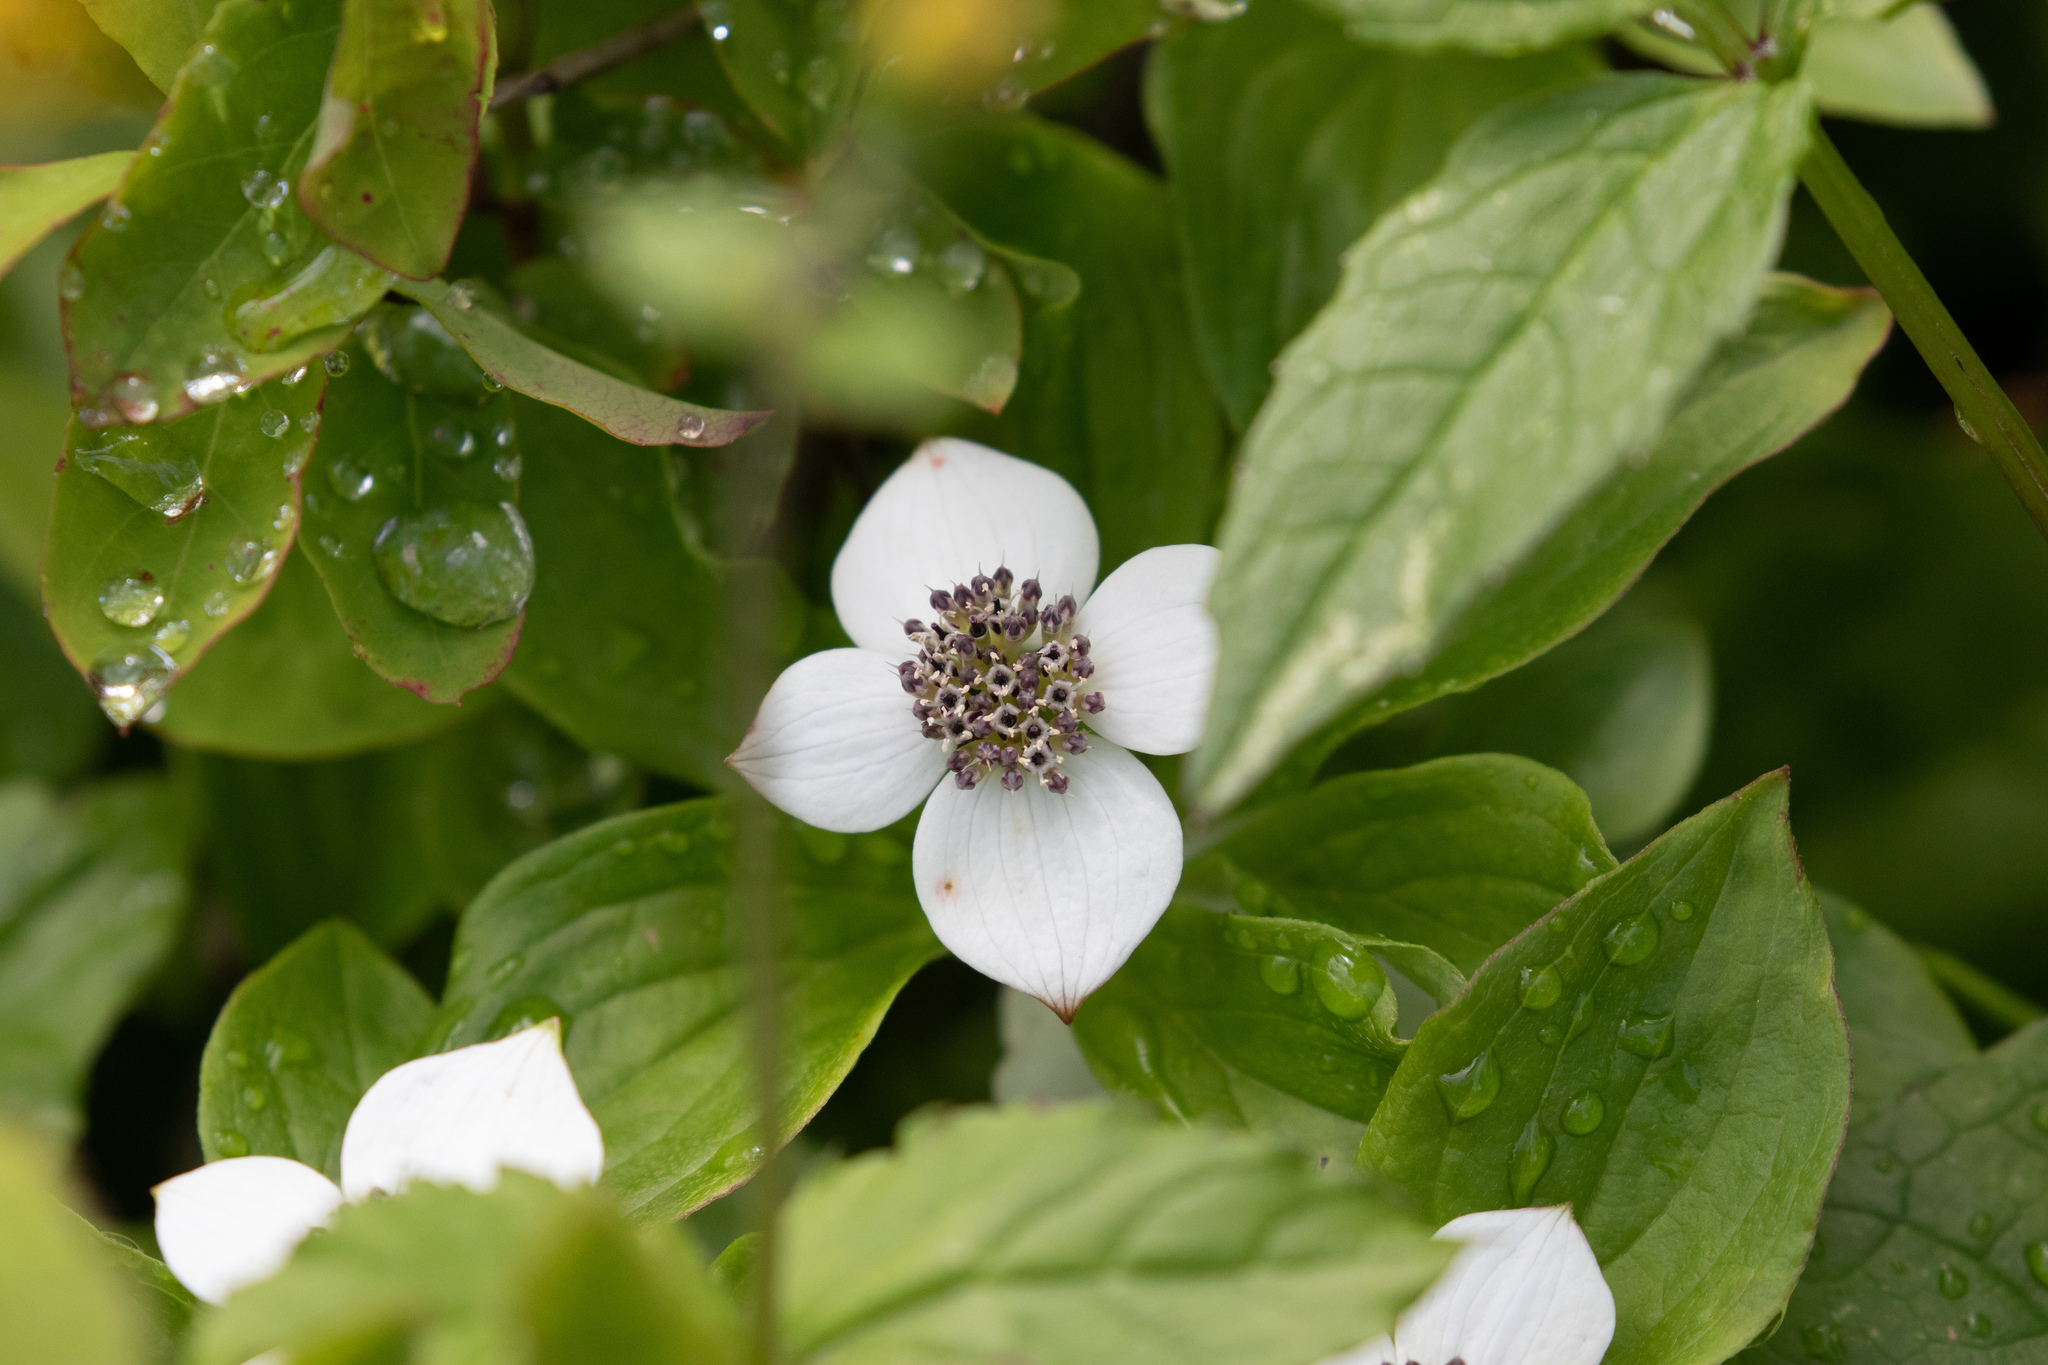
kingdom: Plantae
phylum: Tracheophyta
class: Magnoliopsida
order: Cornales
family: Cornaceae
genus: Cornus
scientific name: Cornus unalaschkensis
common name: Alaska bunchberry
